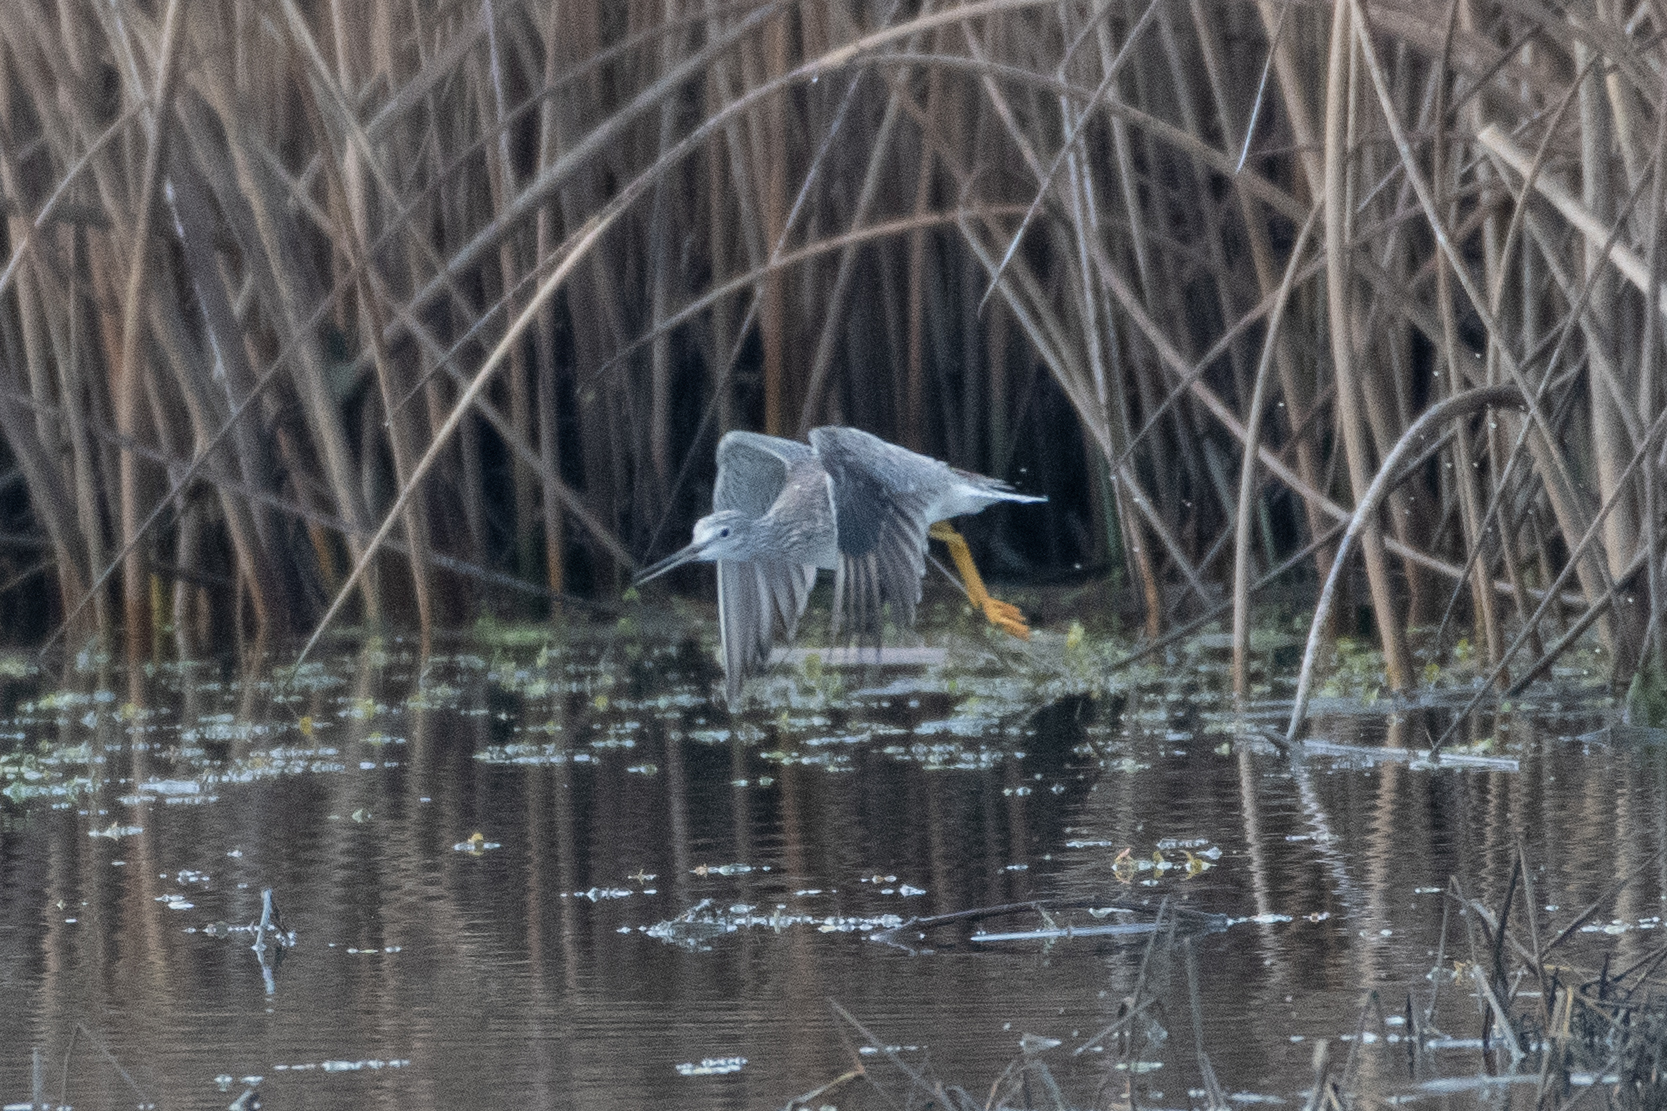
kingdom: Animalia
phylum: Chordata
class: Aves
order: Charadriiformes
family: Scolopacidae
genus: Tringa
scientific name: Tringa melanoleuca
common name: Greater yellowlegs
